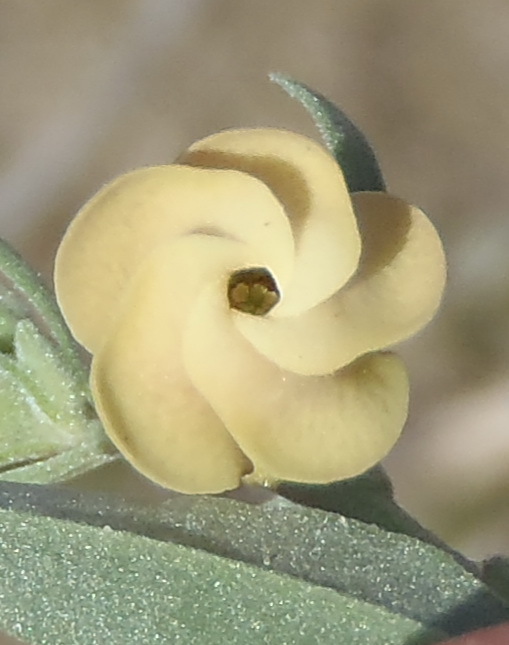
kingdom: Plantae
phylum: Tracheophyta
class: Magnoliopsida
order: Malvales
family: Malvaceae
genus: Hermannia
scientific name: Hermannia gracilis
